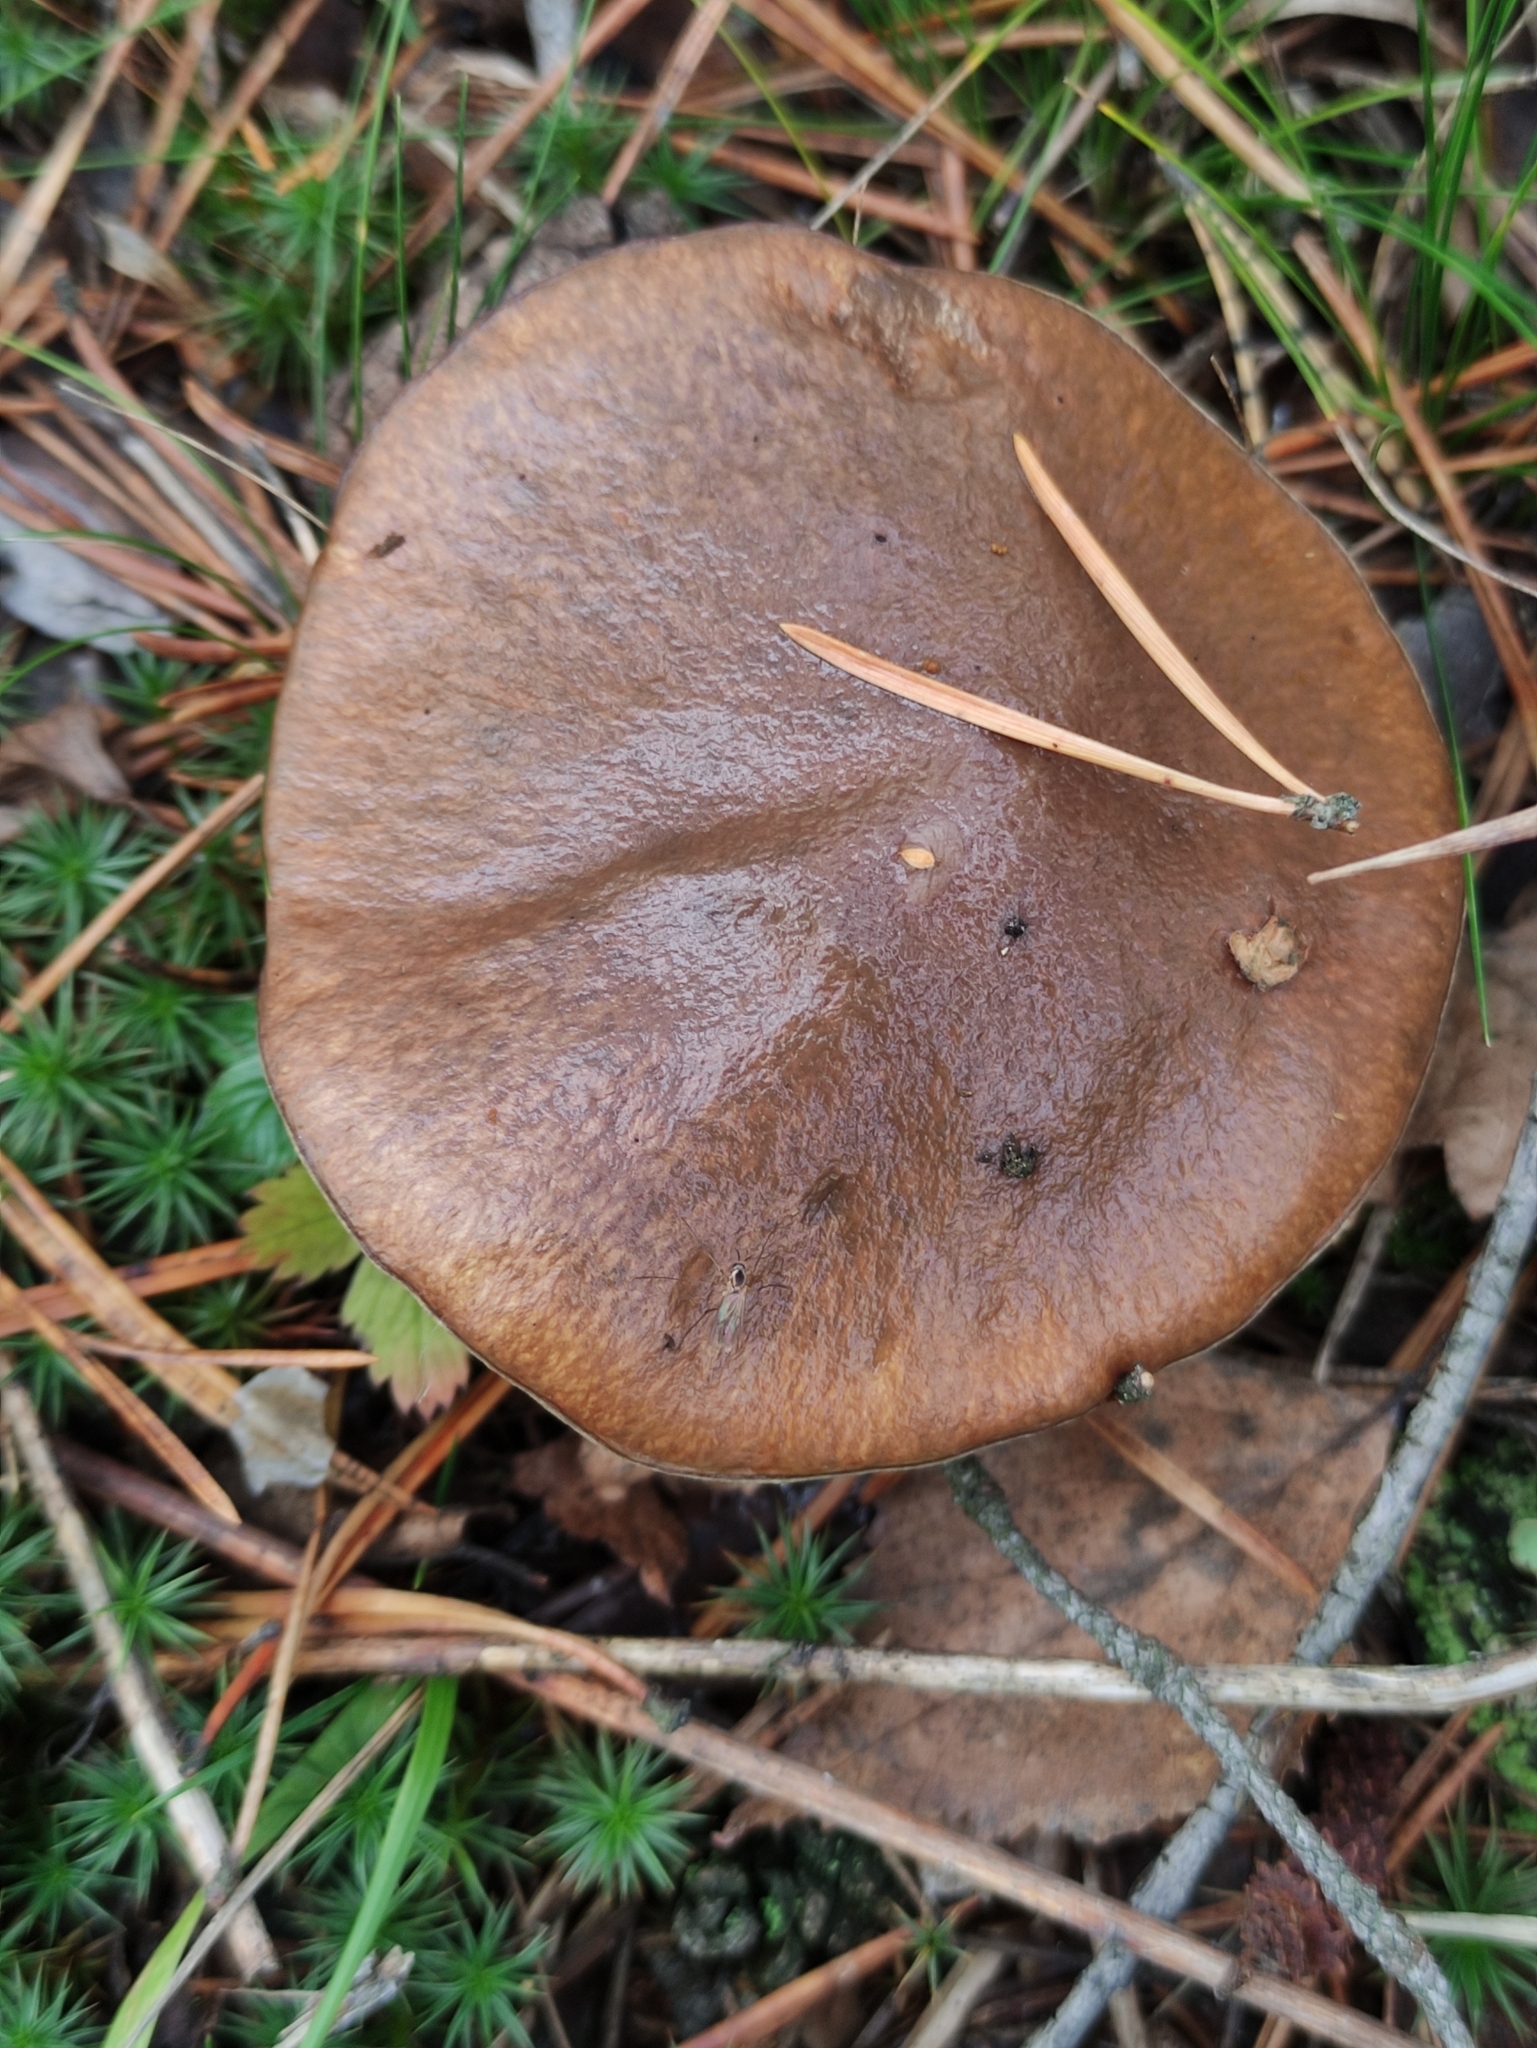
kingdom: Fungi
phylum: Basidiomycota
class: Agaricomycetes
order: Boletales
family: Suillaceae
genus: Suillus
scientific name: Suillus luteus
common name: Slippery jack
